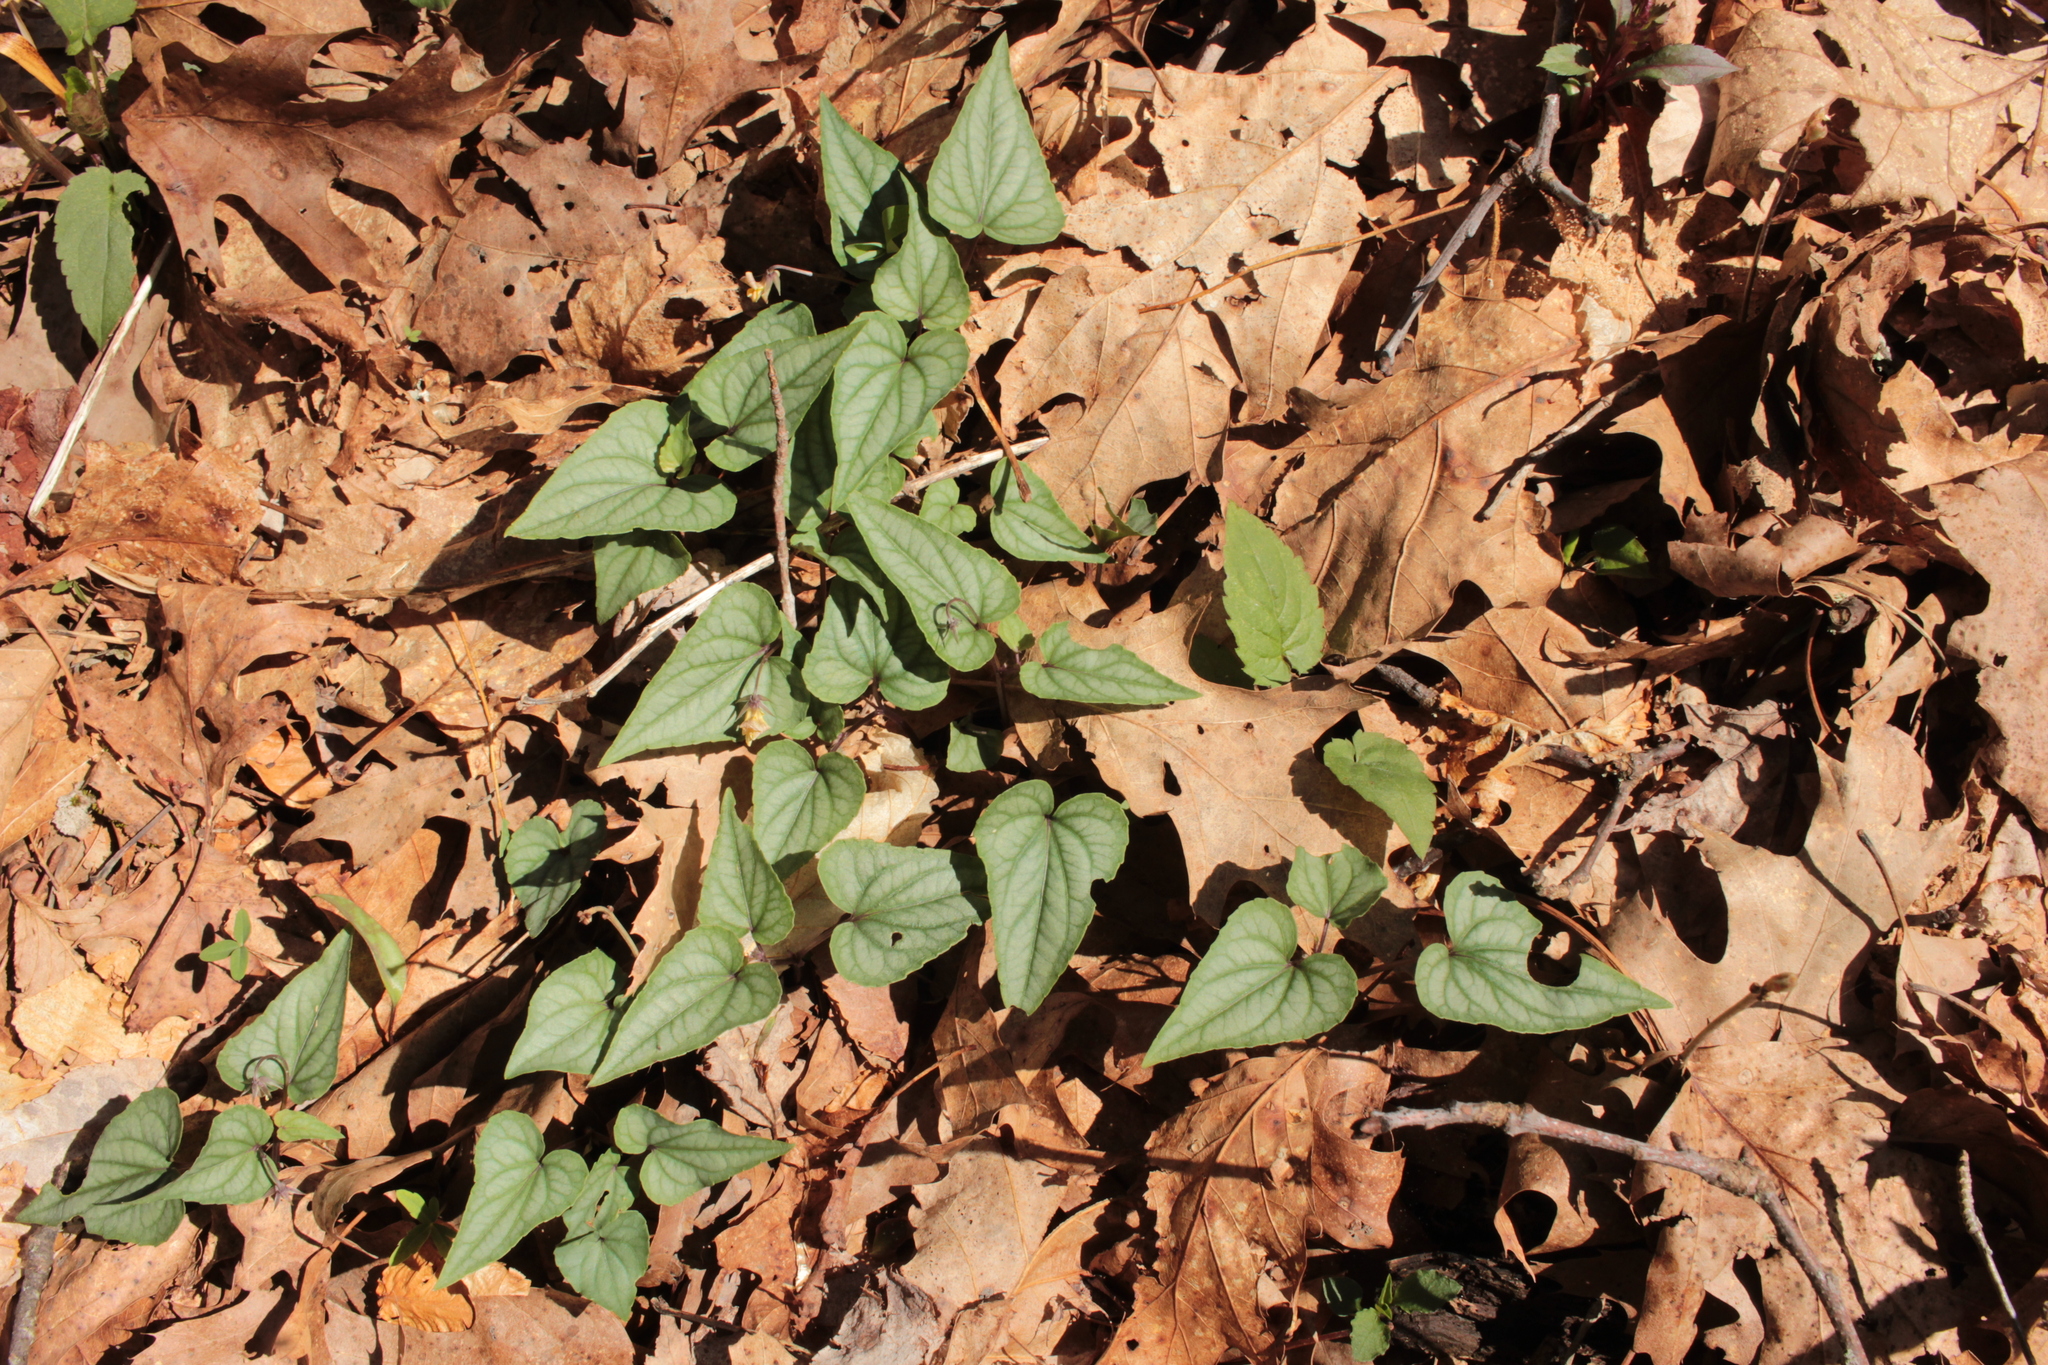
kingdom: Plantae
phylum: Tracheophyta
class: Magnoliopsida
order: Malpighiales
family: Violaceae
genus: Viola
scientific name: Viola hastata
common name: Spear-leaf violet
